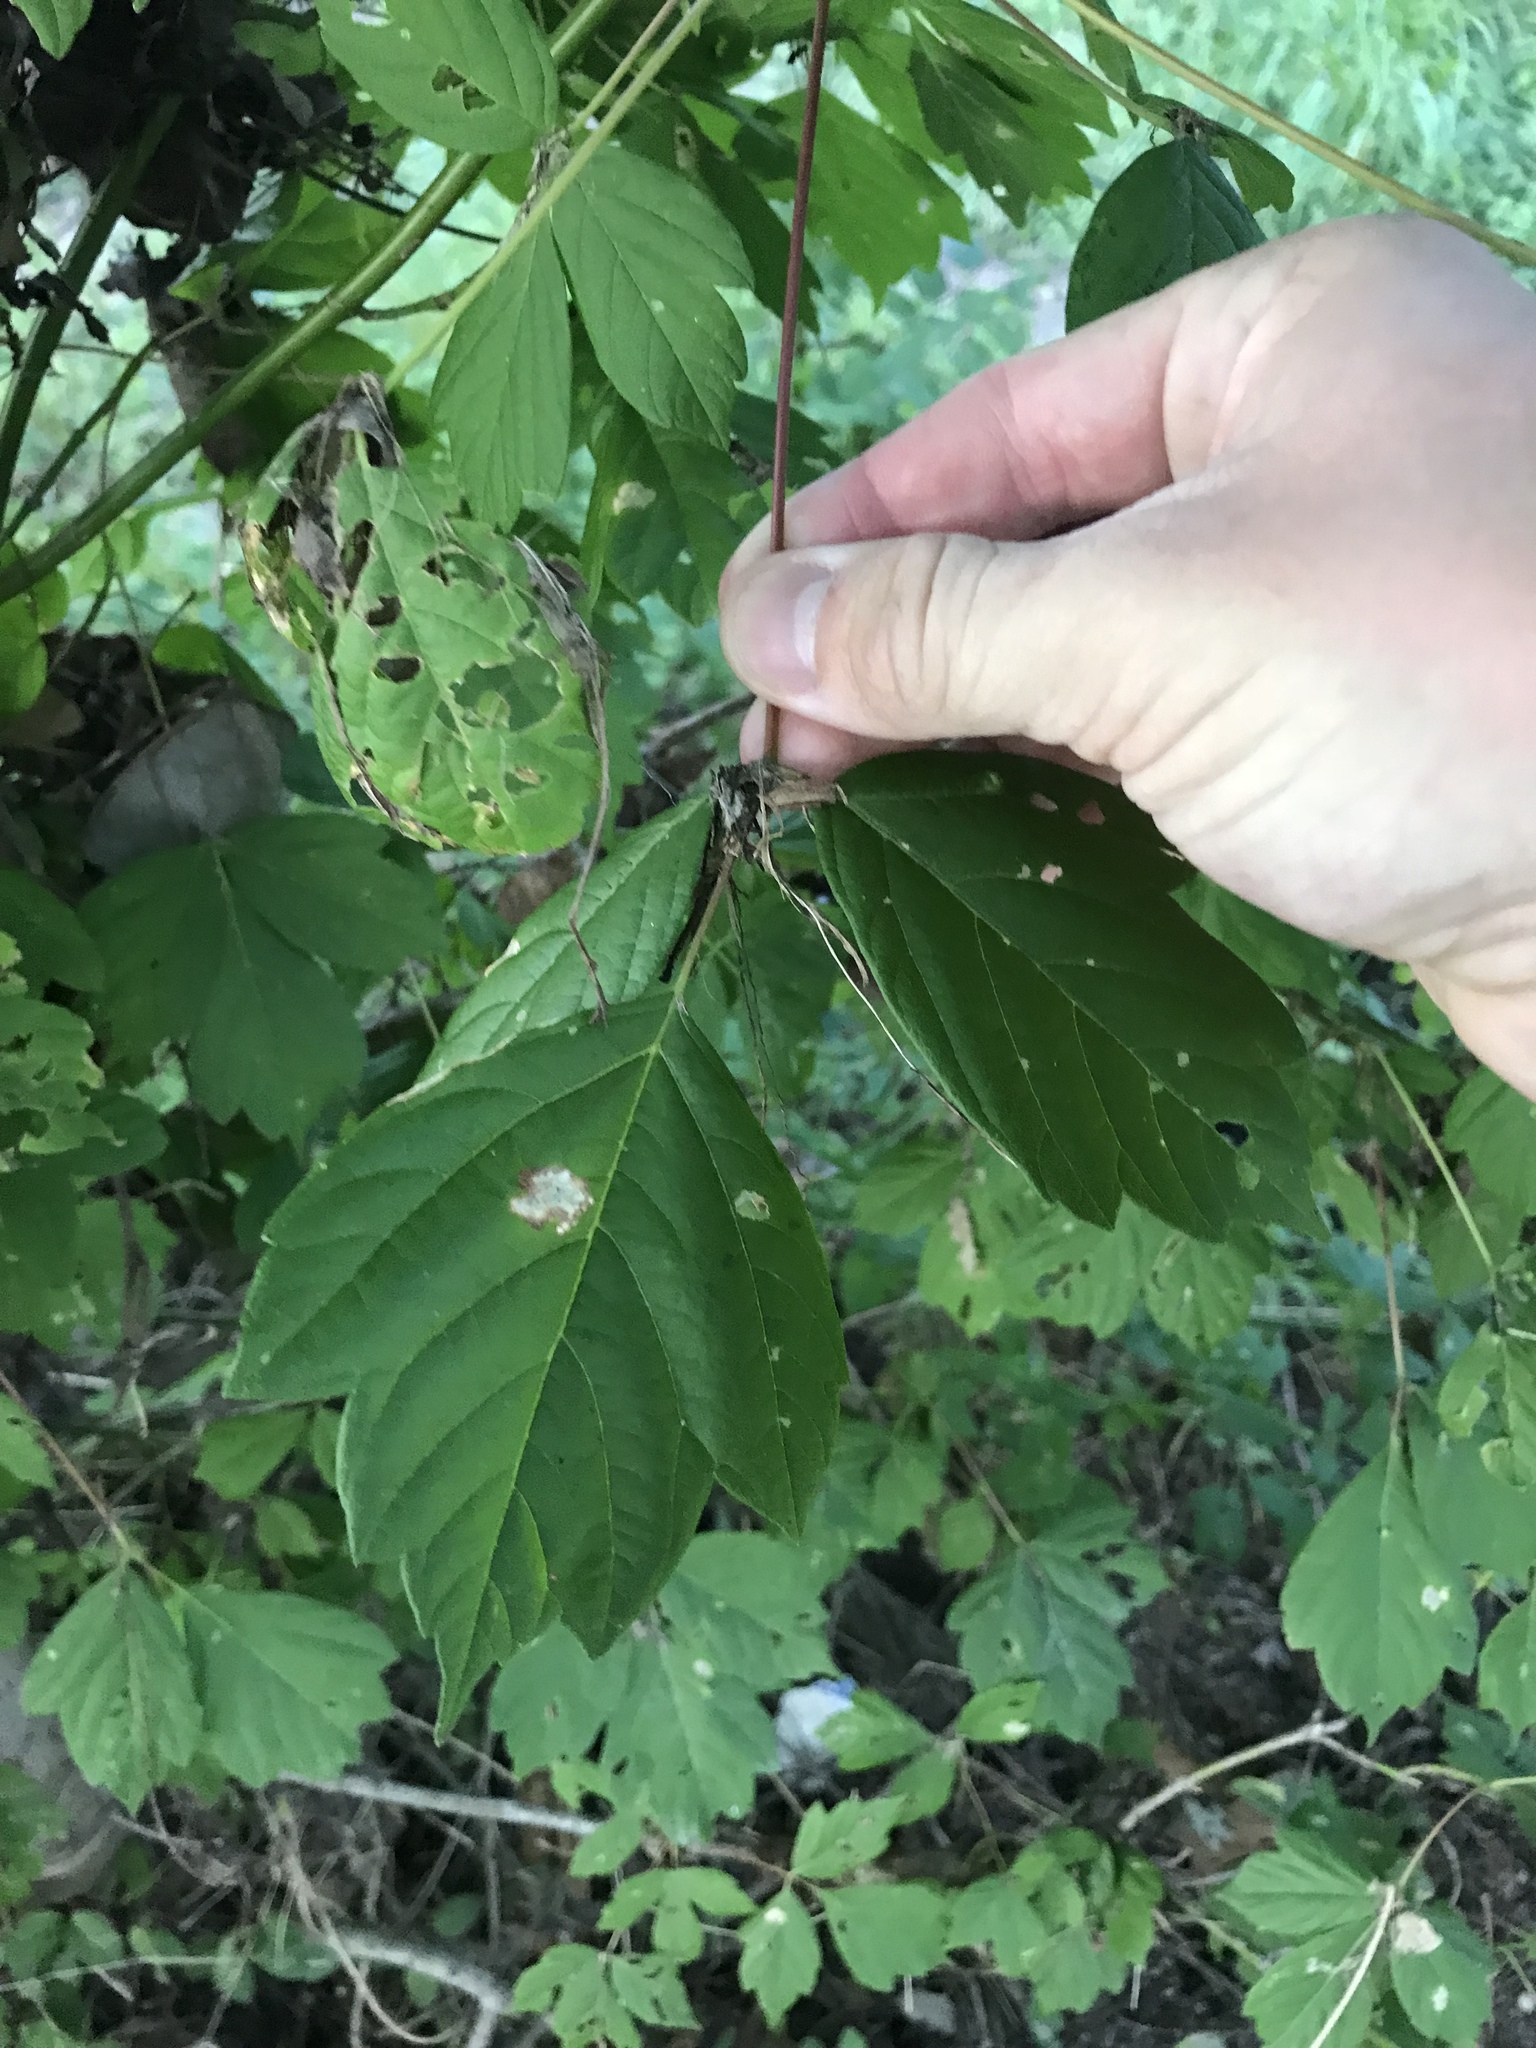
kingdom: Plantae
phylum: Tracheophyta
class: Magnoliopsida
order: Sapindales
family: Sapindaceae
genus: Acer
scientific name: Acer negundo
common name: Ashleaf maple
